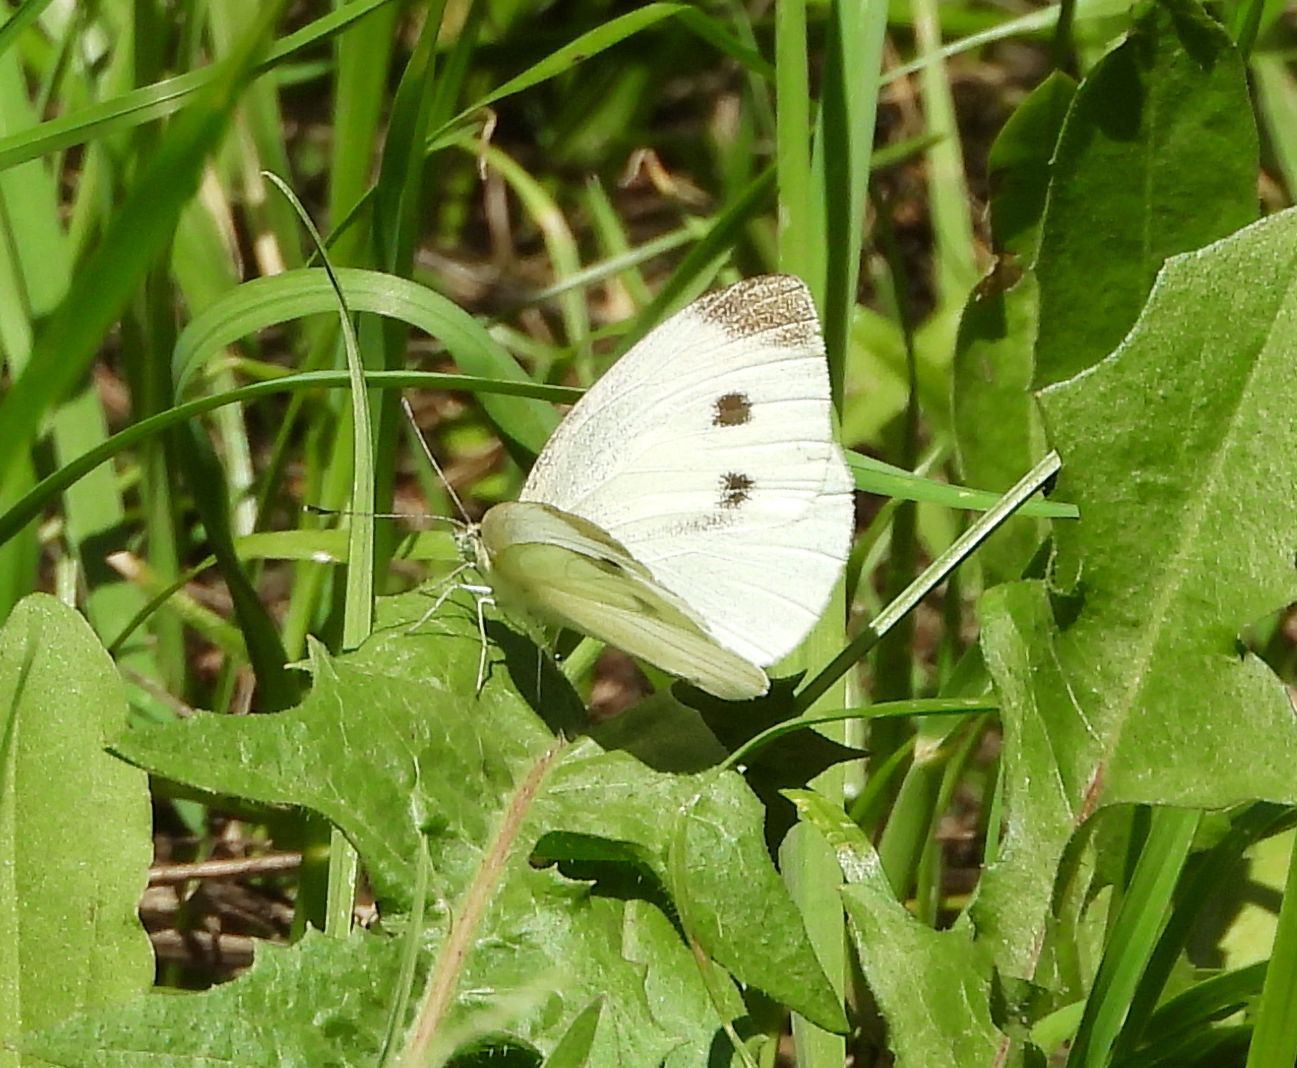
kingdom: Animalia
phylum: Arthropoda
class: Insecta
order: Lepidoptera
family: Pieridae
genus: Pieris
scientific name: Pieris rapae
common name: Small white
